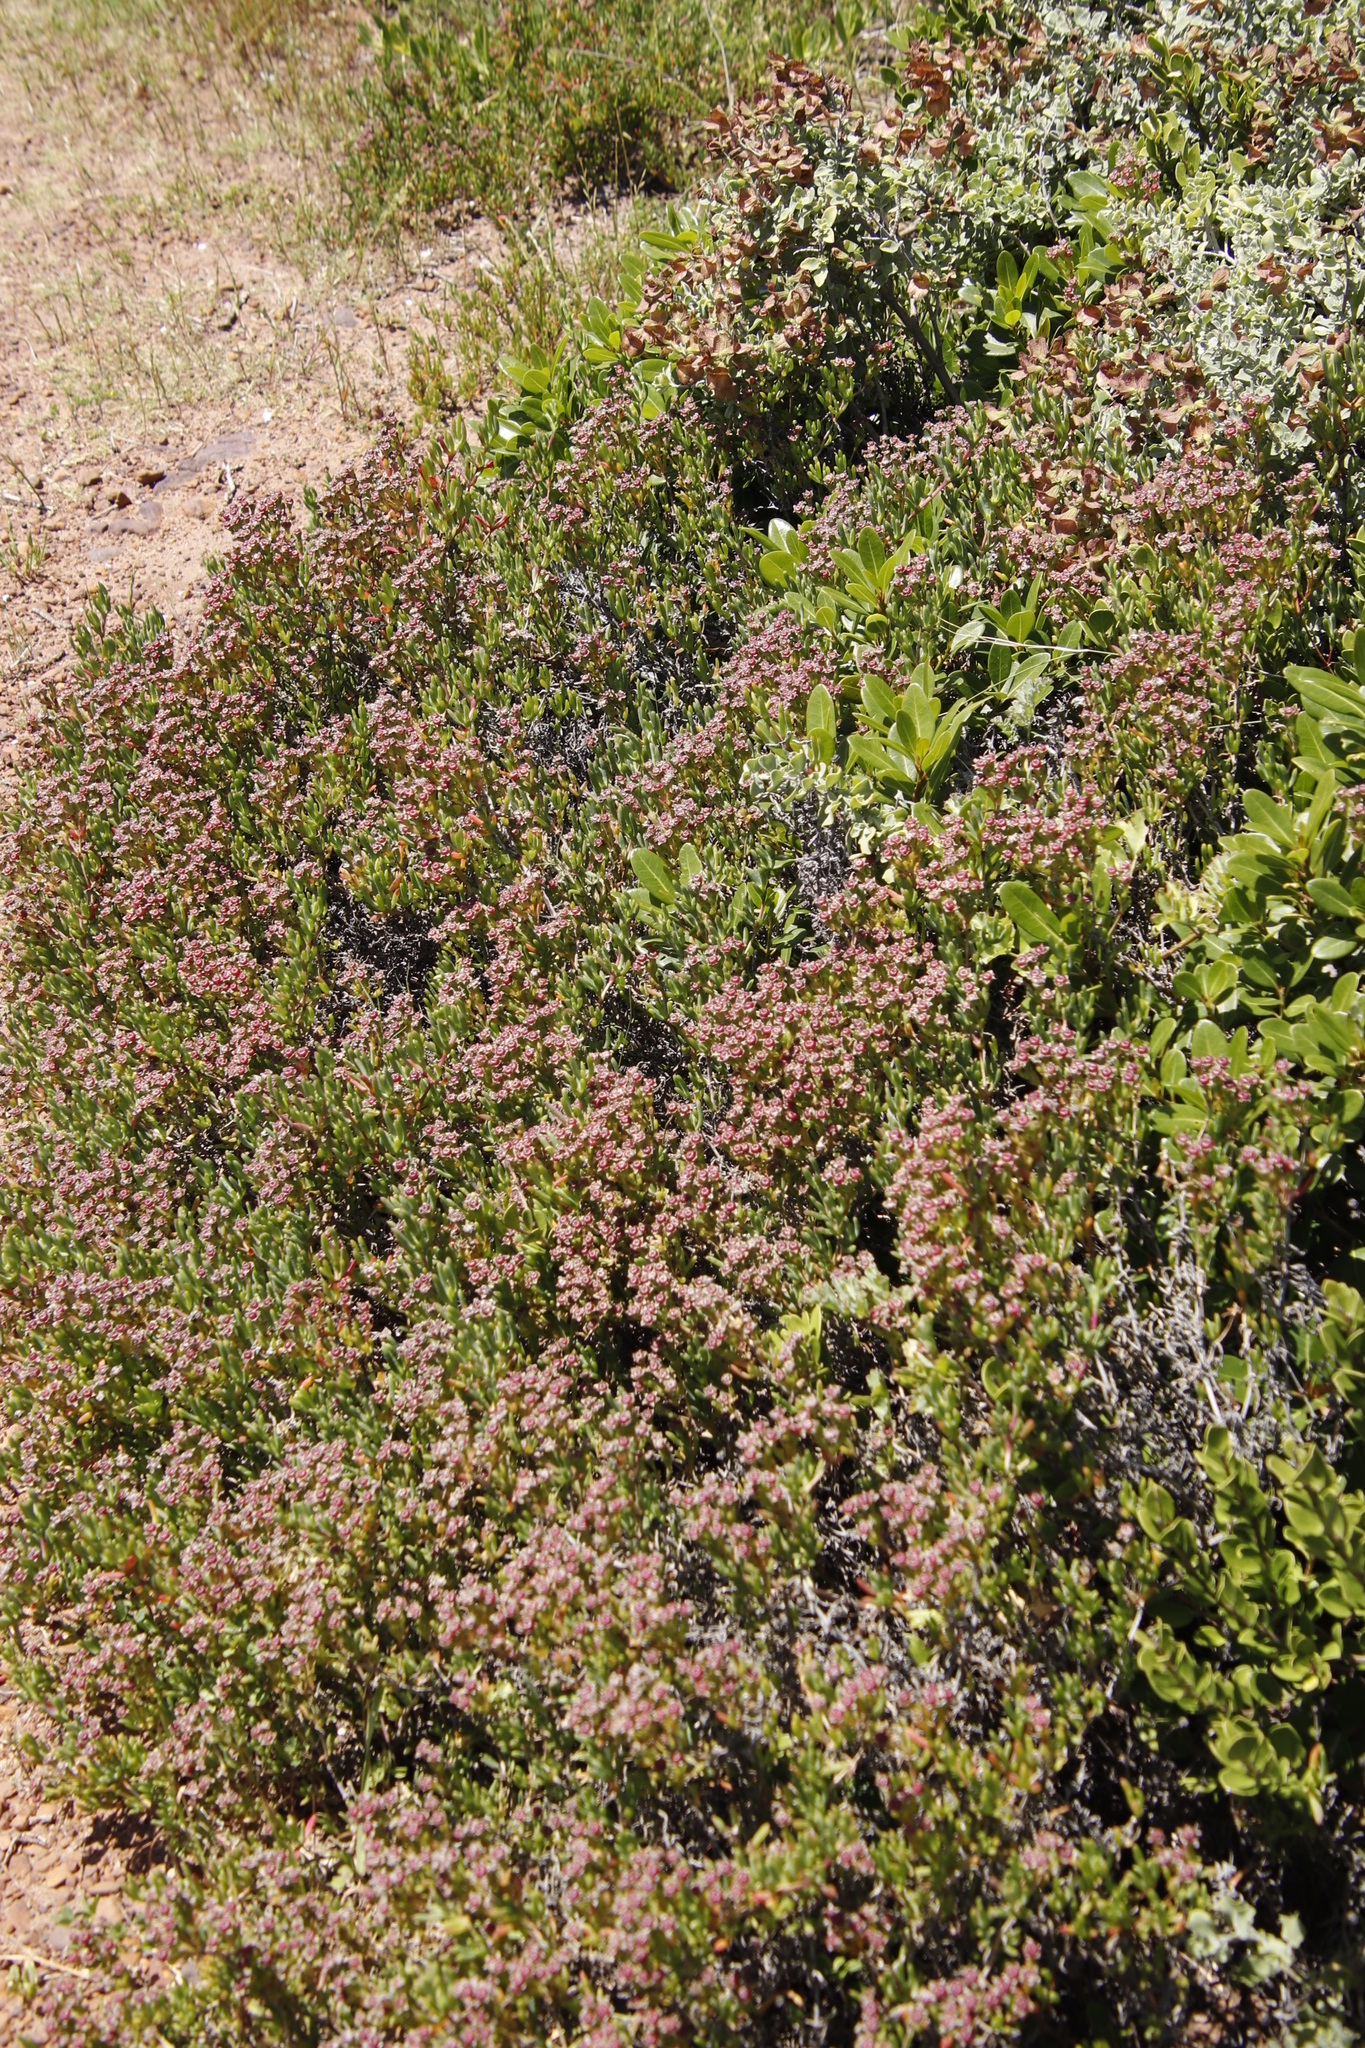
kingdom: Plantae
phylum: Tracheophyta
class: Magnoliopsida
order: Caryophyllales
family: Aizoaceae
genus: Ruschia
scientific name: Ruschia macowanii
